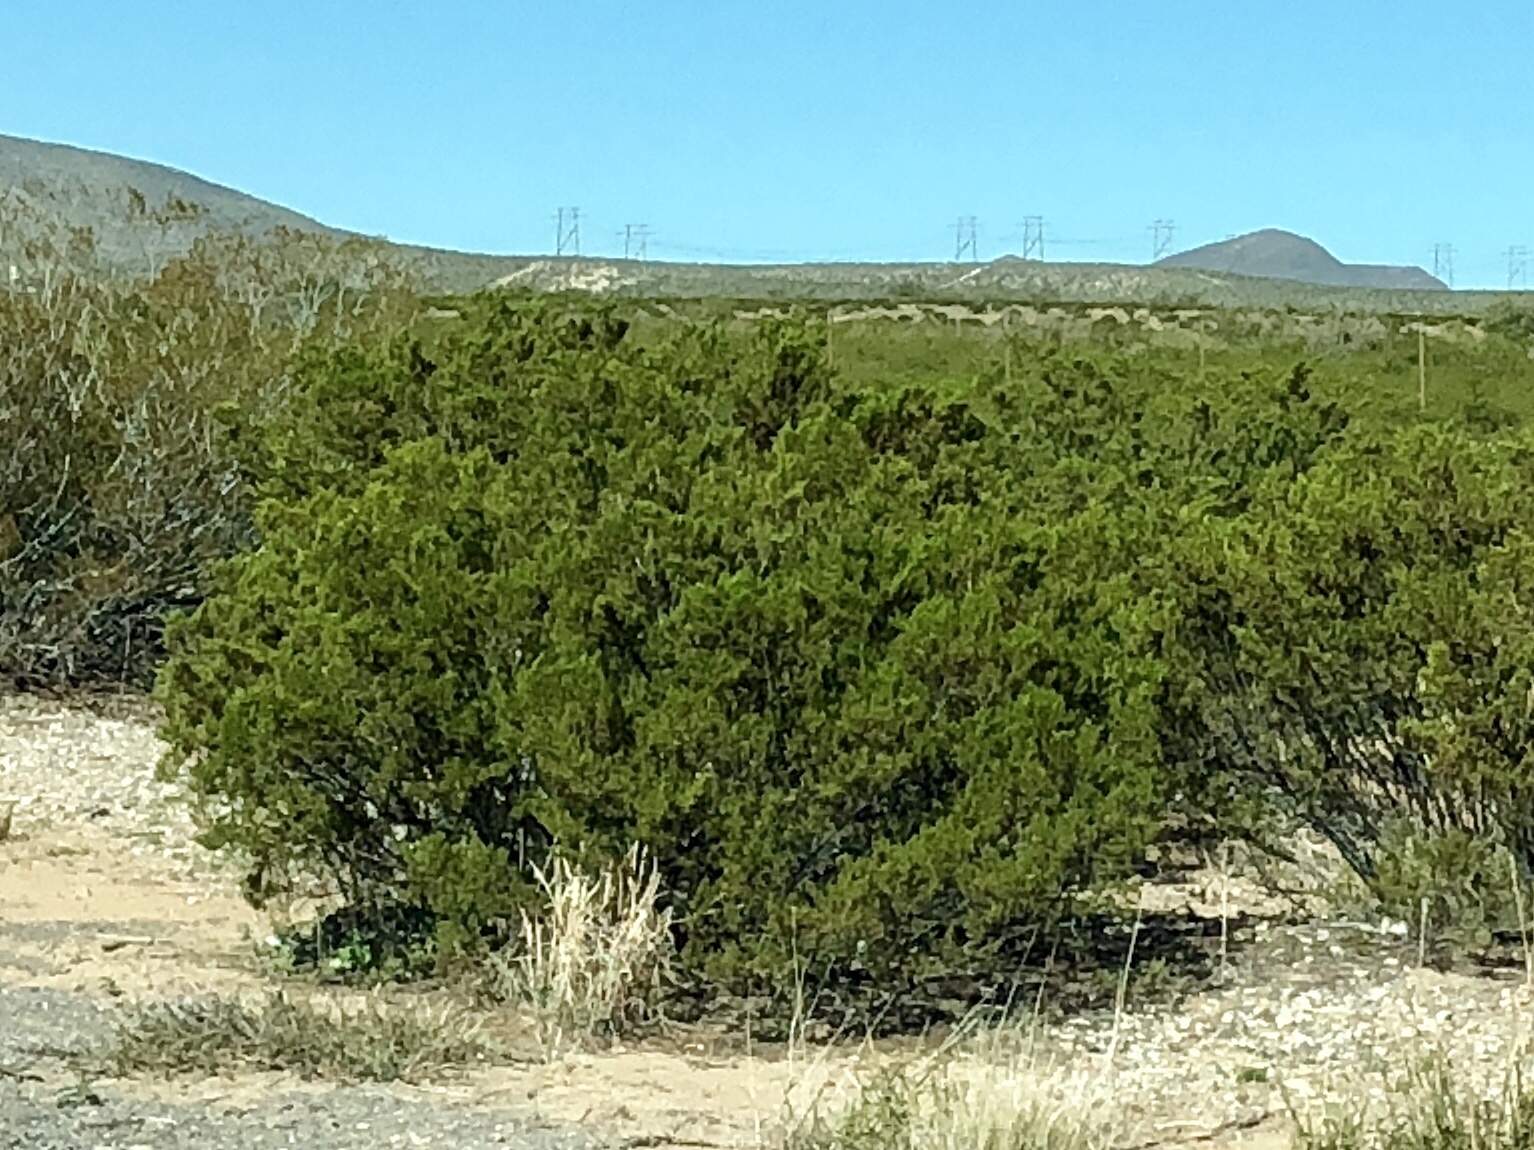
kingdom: Plantae
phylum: Tracheophyta
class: Magnoliopsida
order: Zygophyllales
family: Zygophyllaceae
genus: Larrea
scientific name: Larrea tridentata
